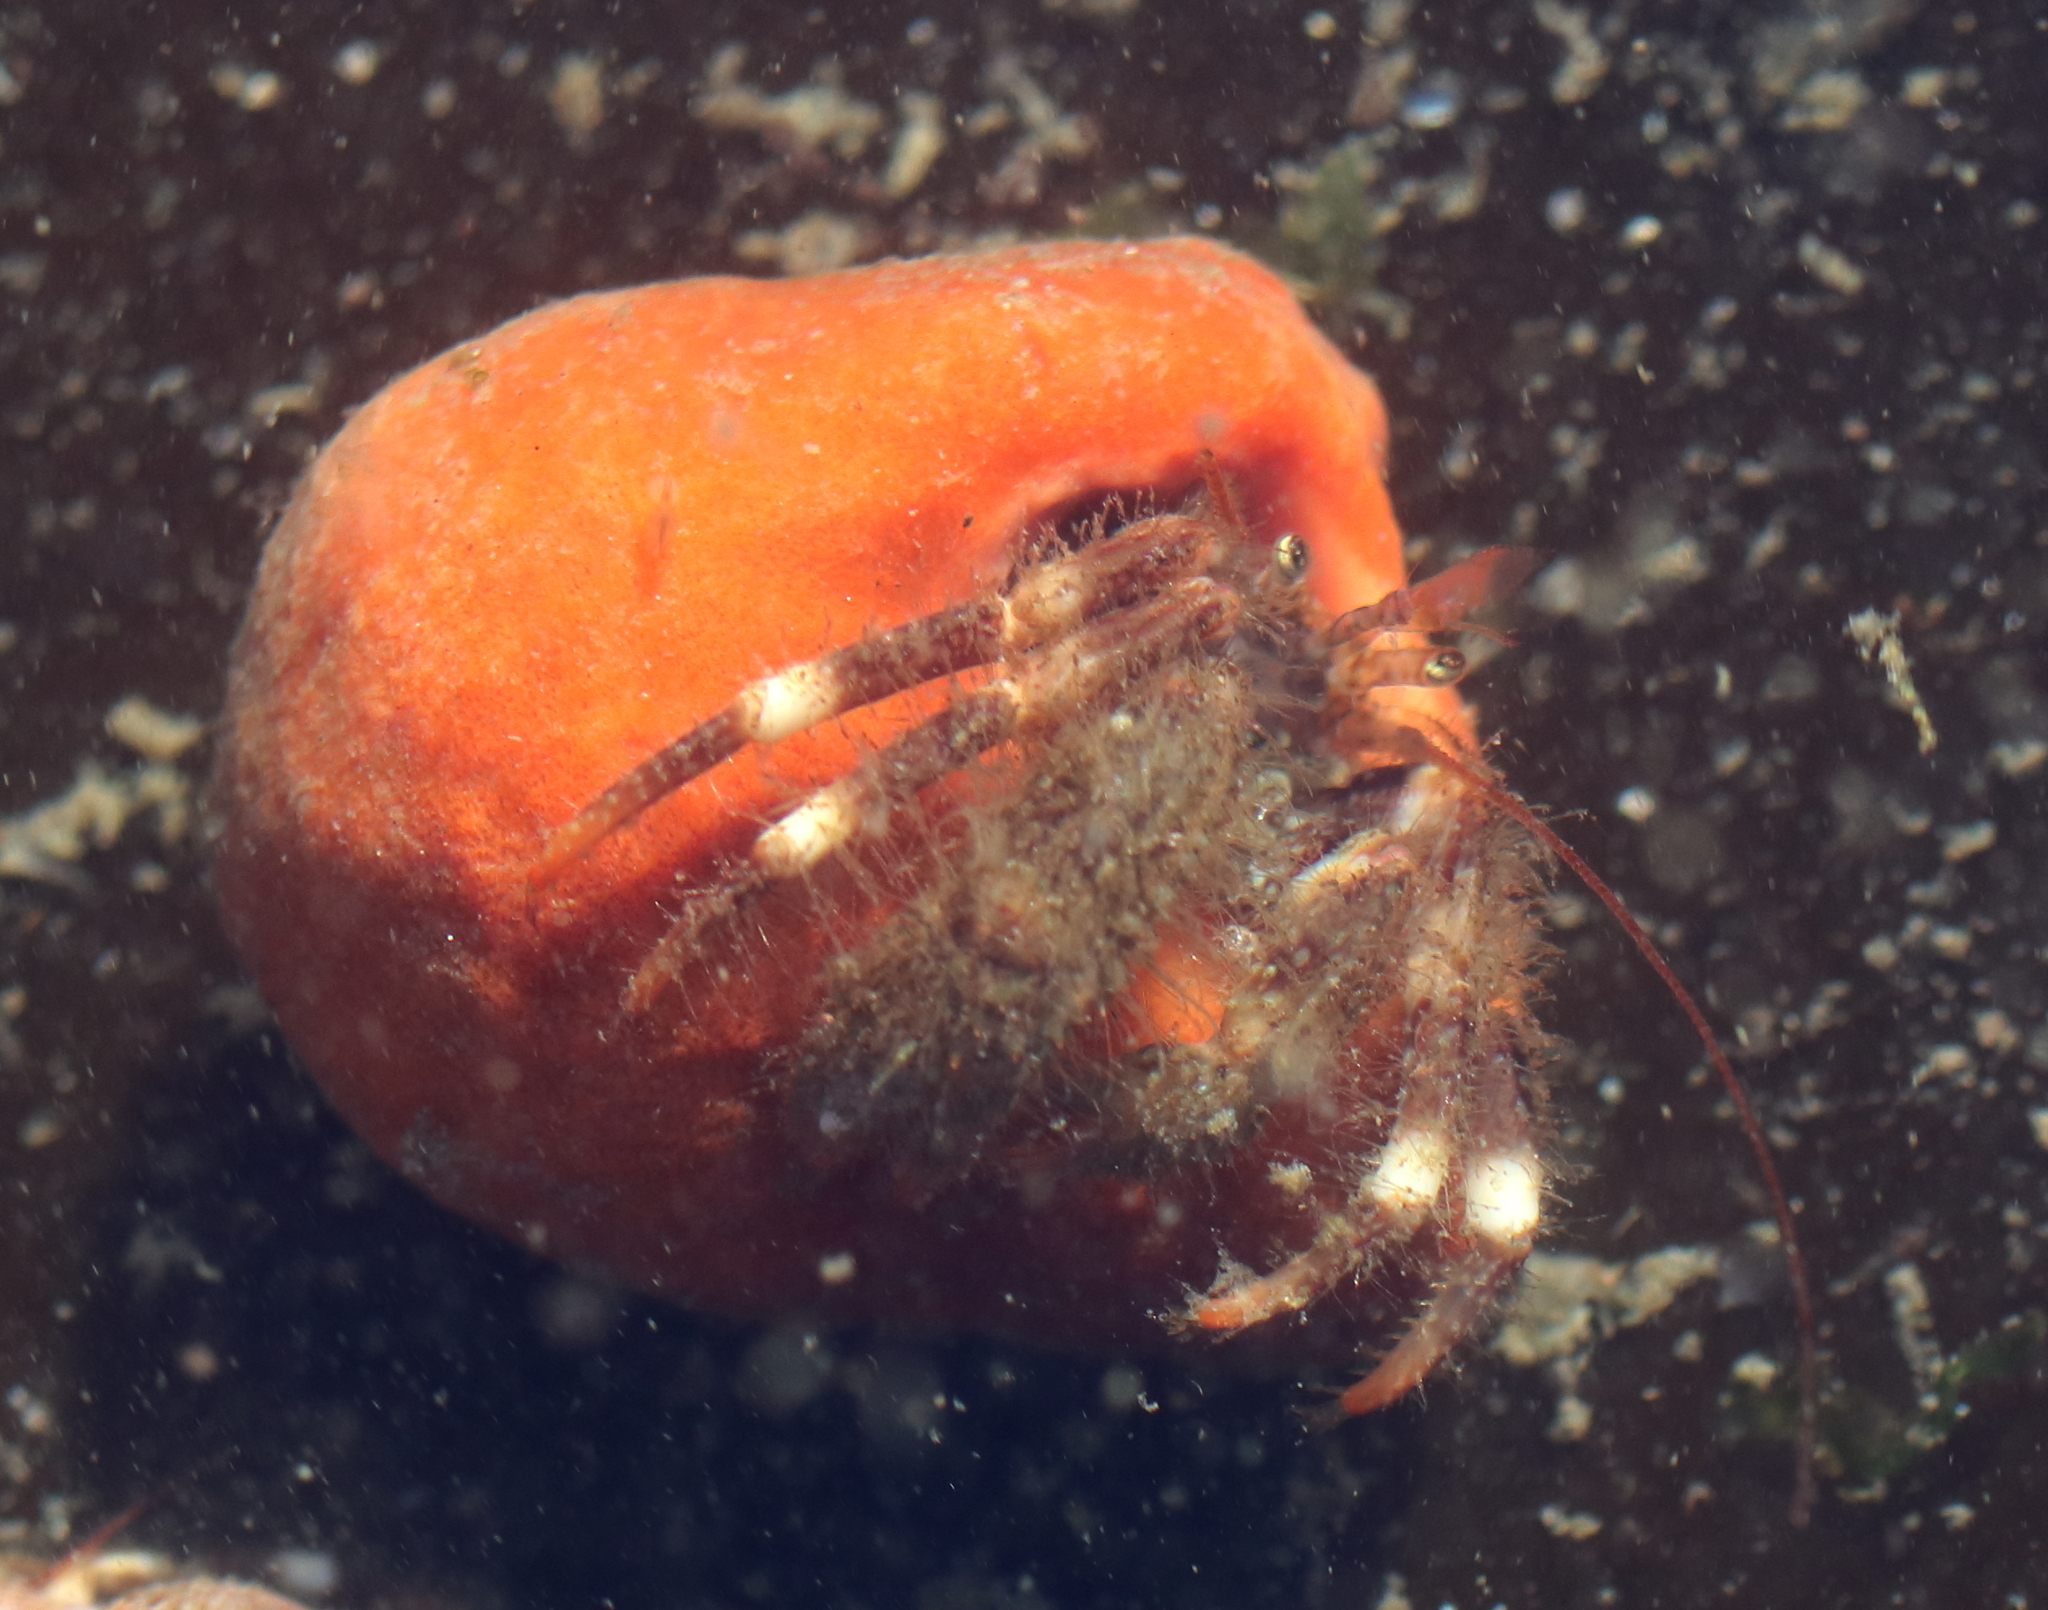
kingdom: Animalia
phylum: Porifera
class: Demospongiae
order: Suberitida
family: Suberitidae
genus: Suberites
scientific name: Suberites latus
